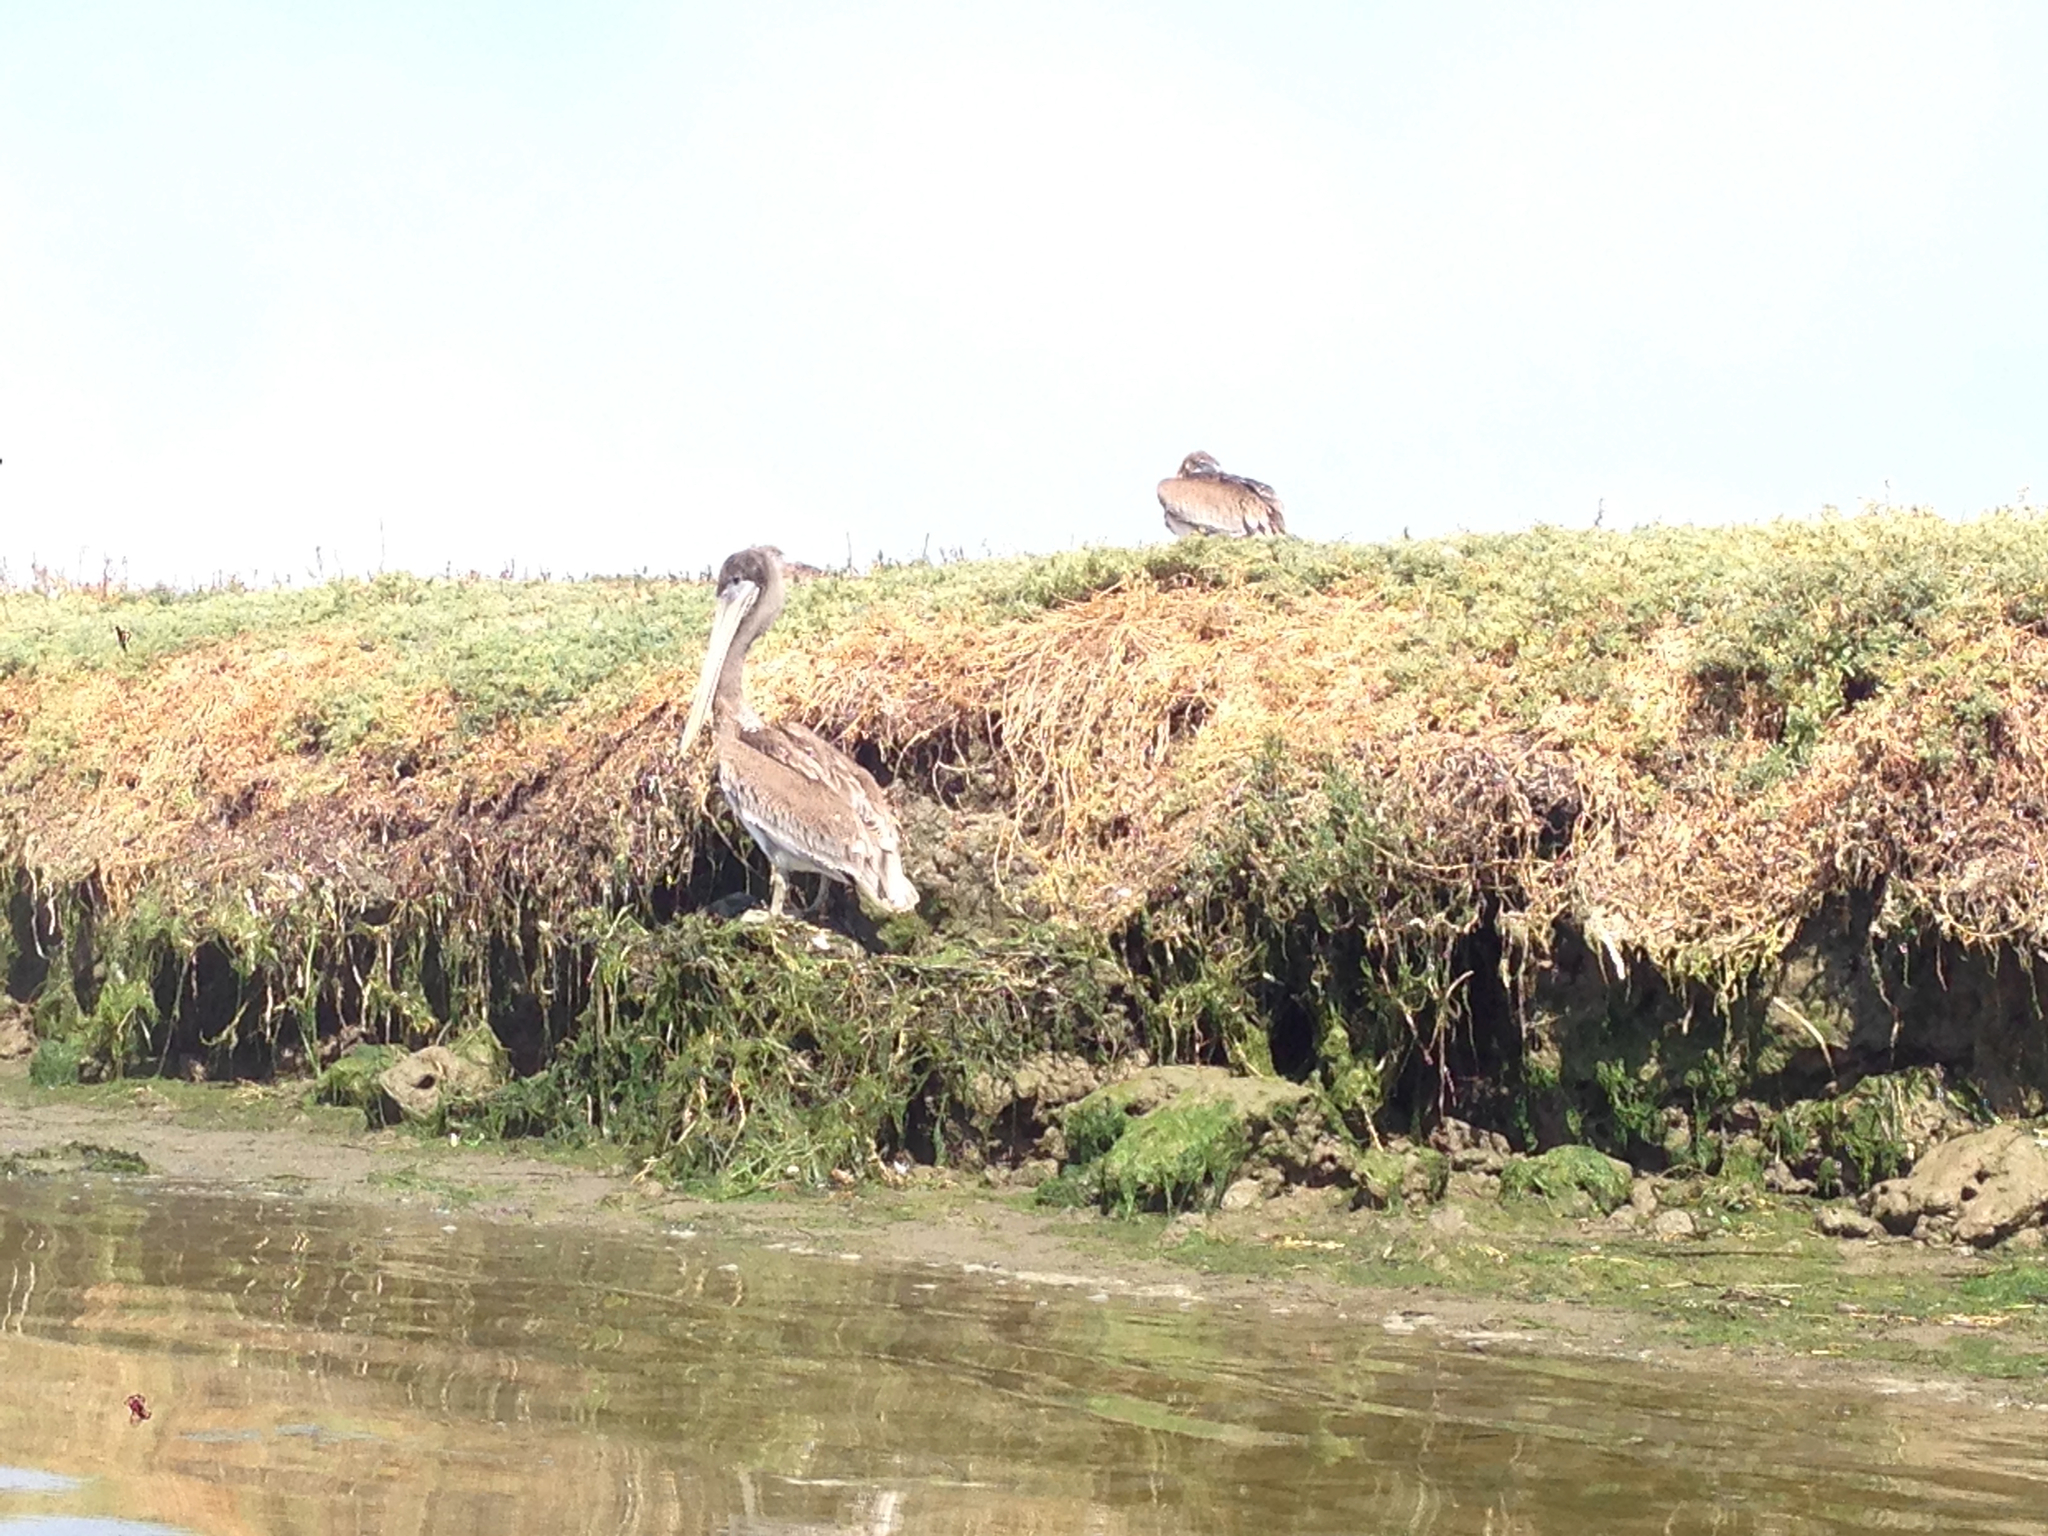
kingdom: Animalia
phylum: Chordata
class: Aves
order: Pelecaniformes
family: Pelecanidae
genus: Pelecanus
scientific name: Pelecanus occidentalis
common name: Brown pelican
